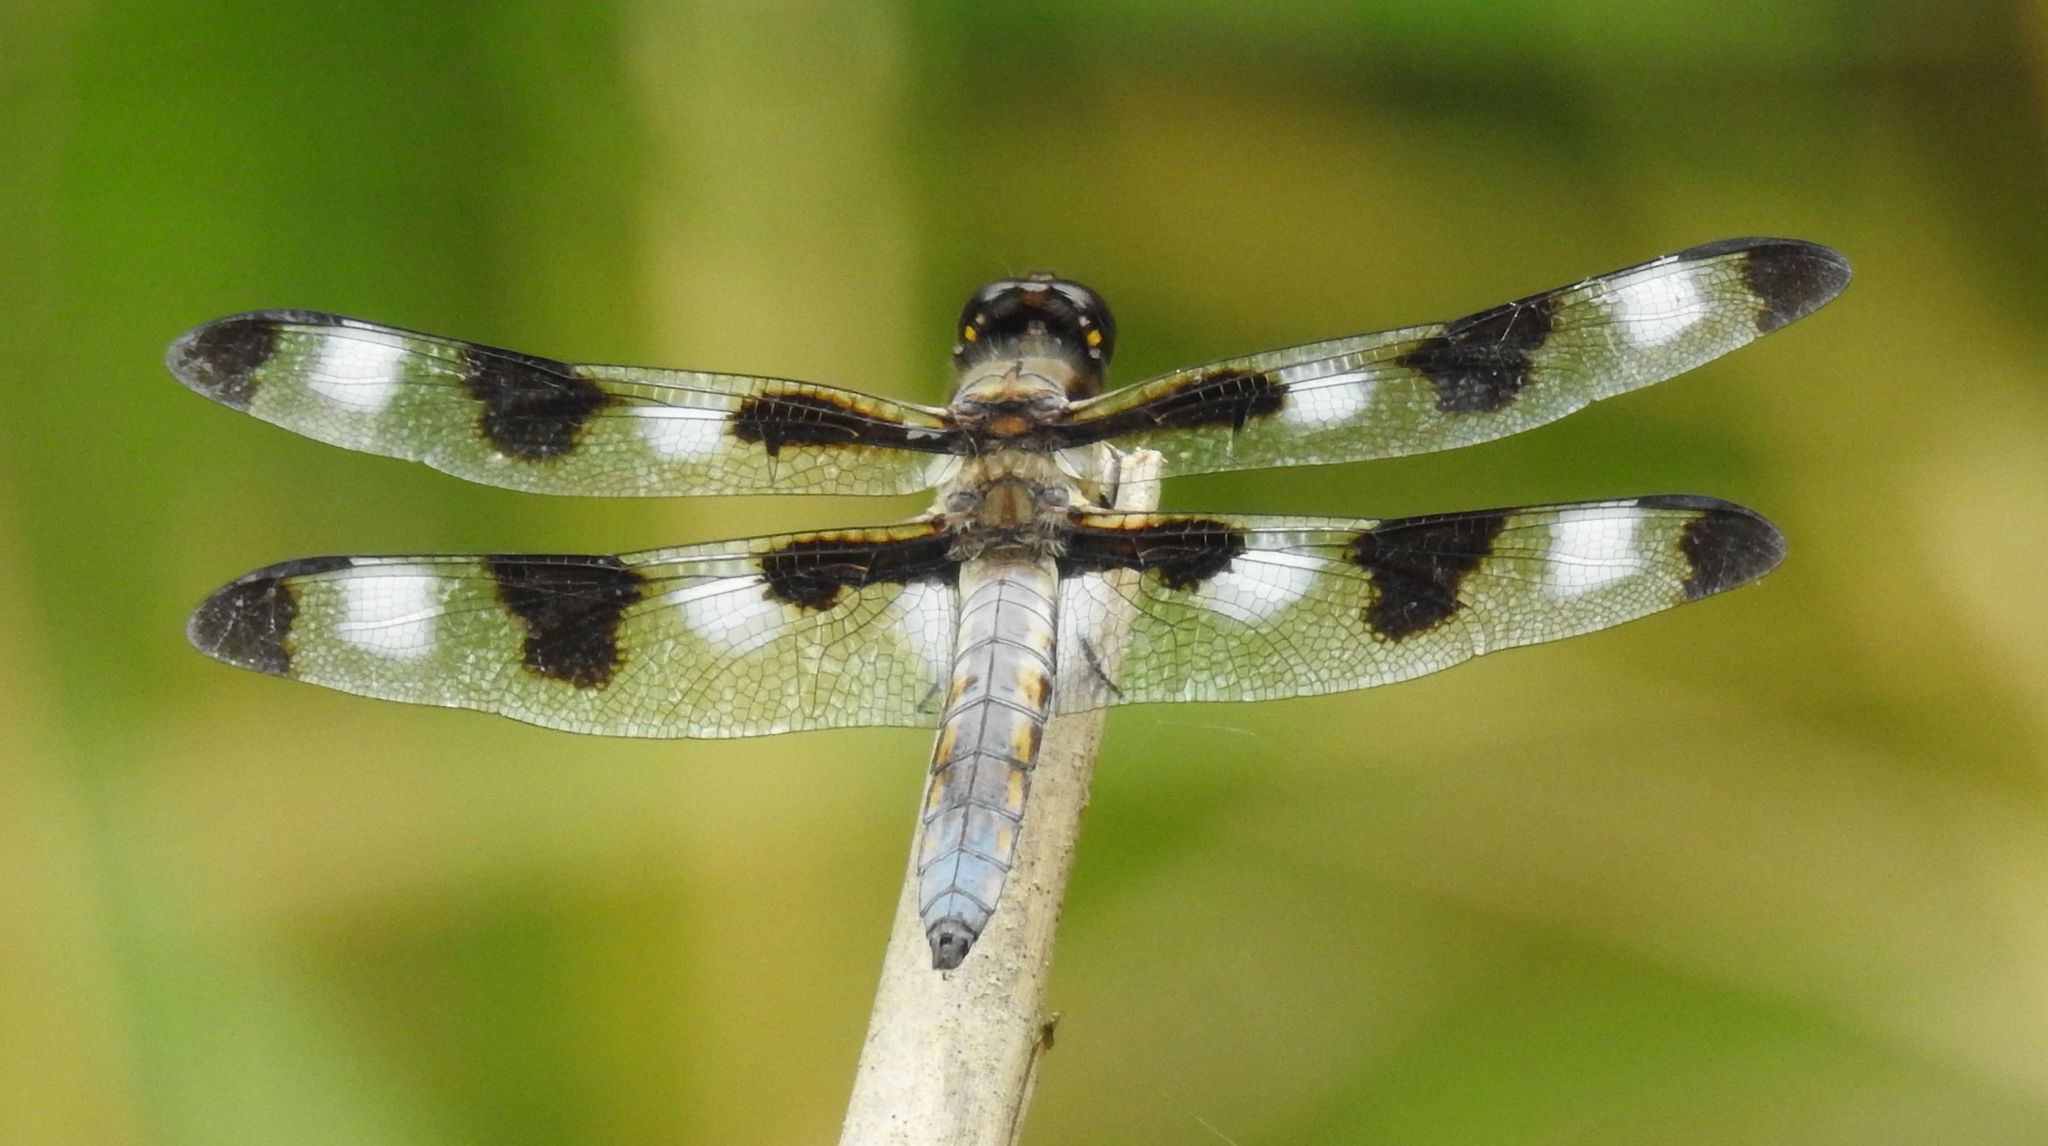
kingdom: Animalia
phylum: Arthropoda
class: Insecta
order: Odonata
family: Libellulidae
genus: Libellula
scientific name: Libellula pulchella
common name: Twelve-spotted skimmer
